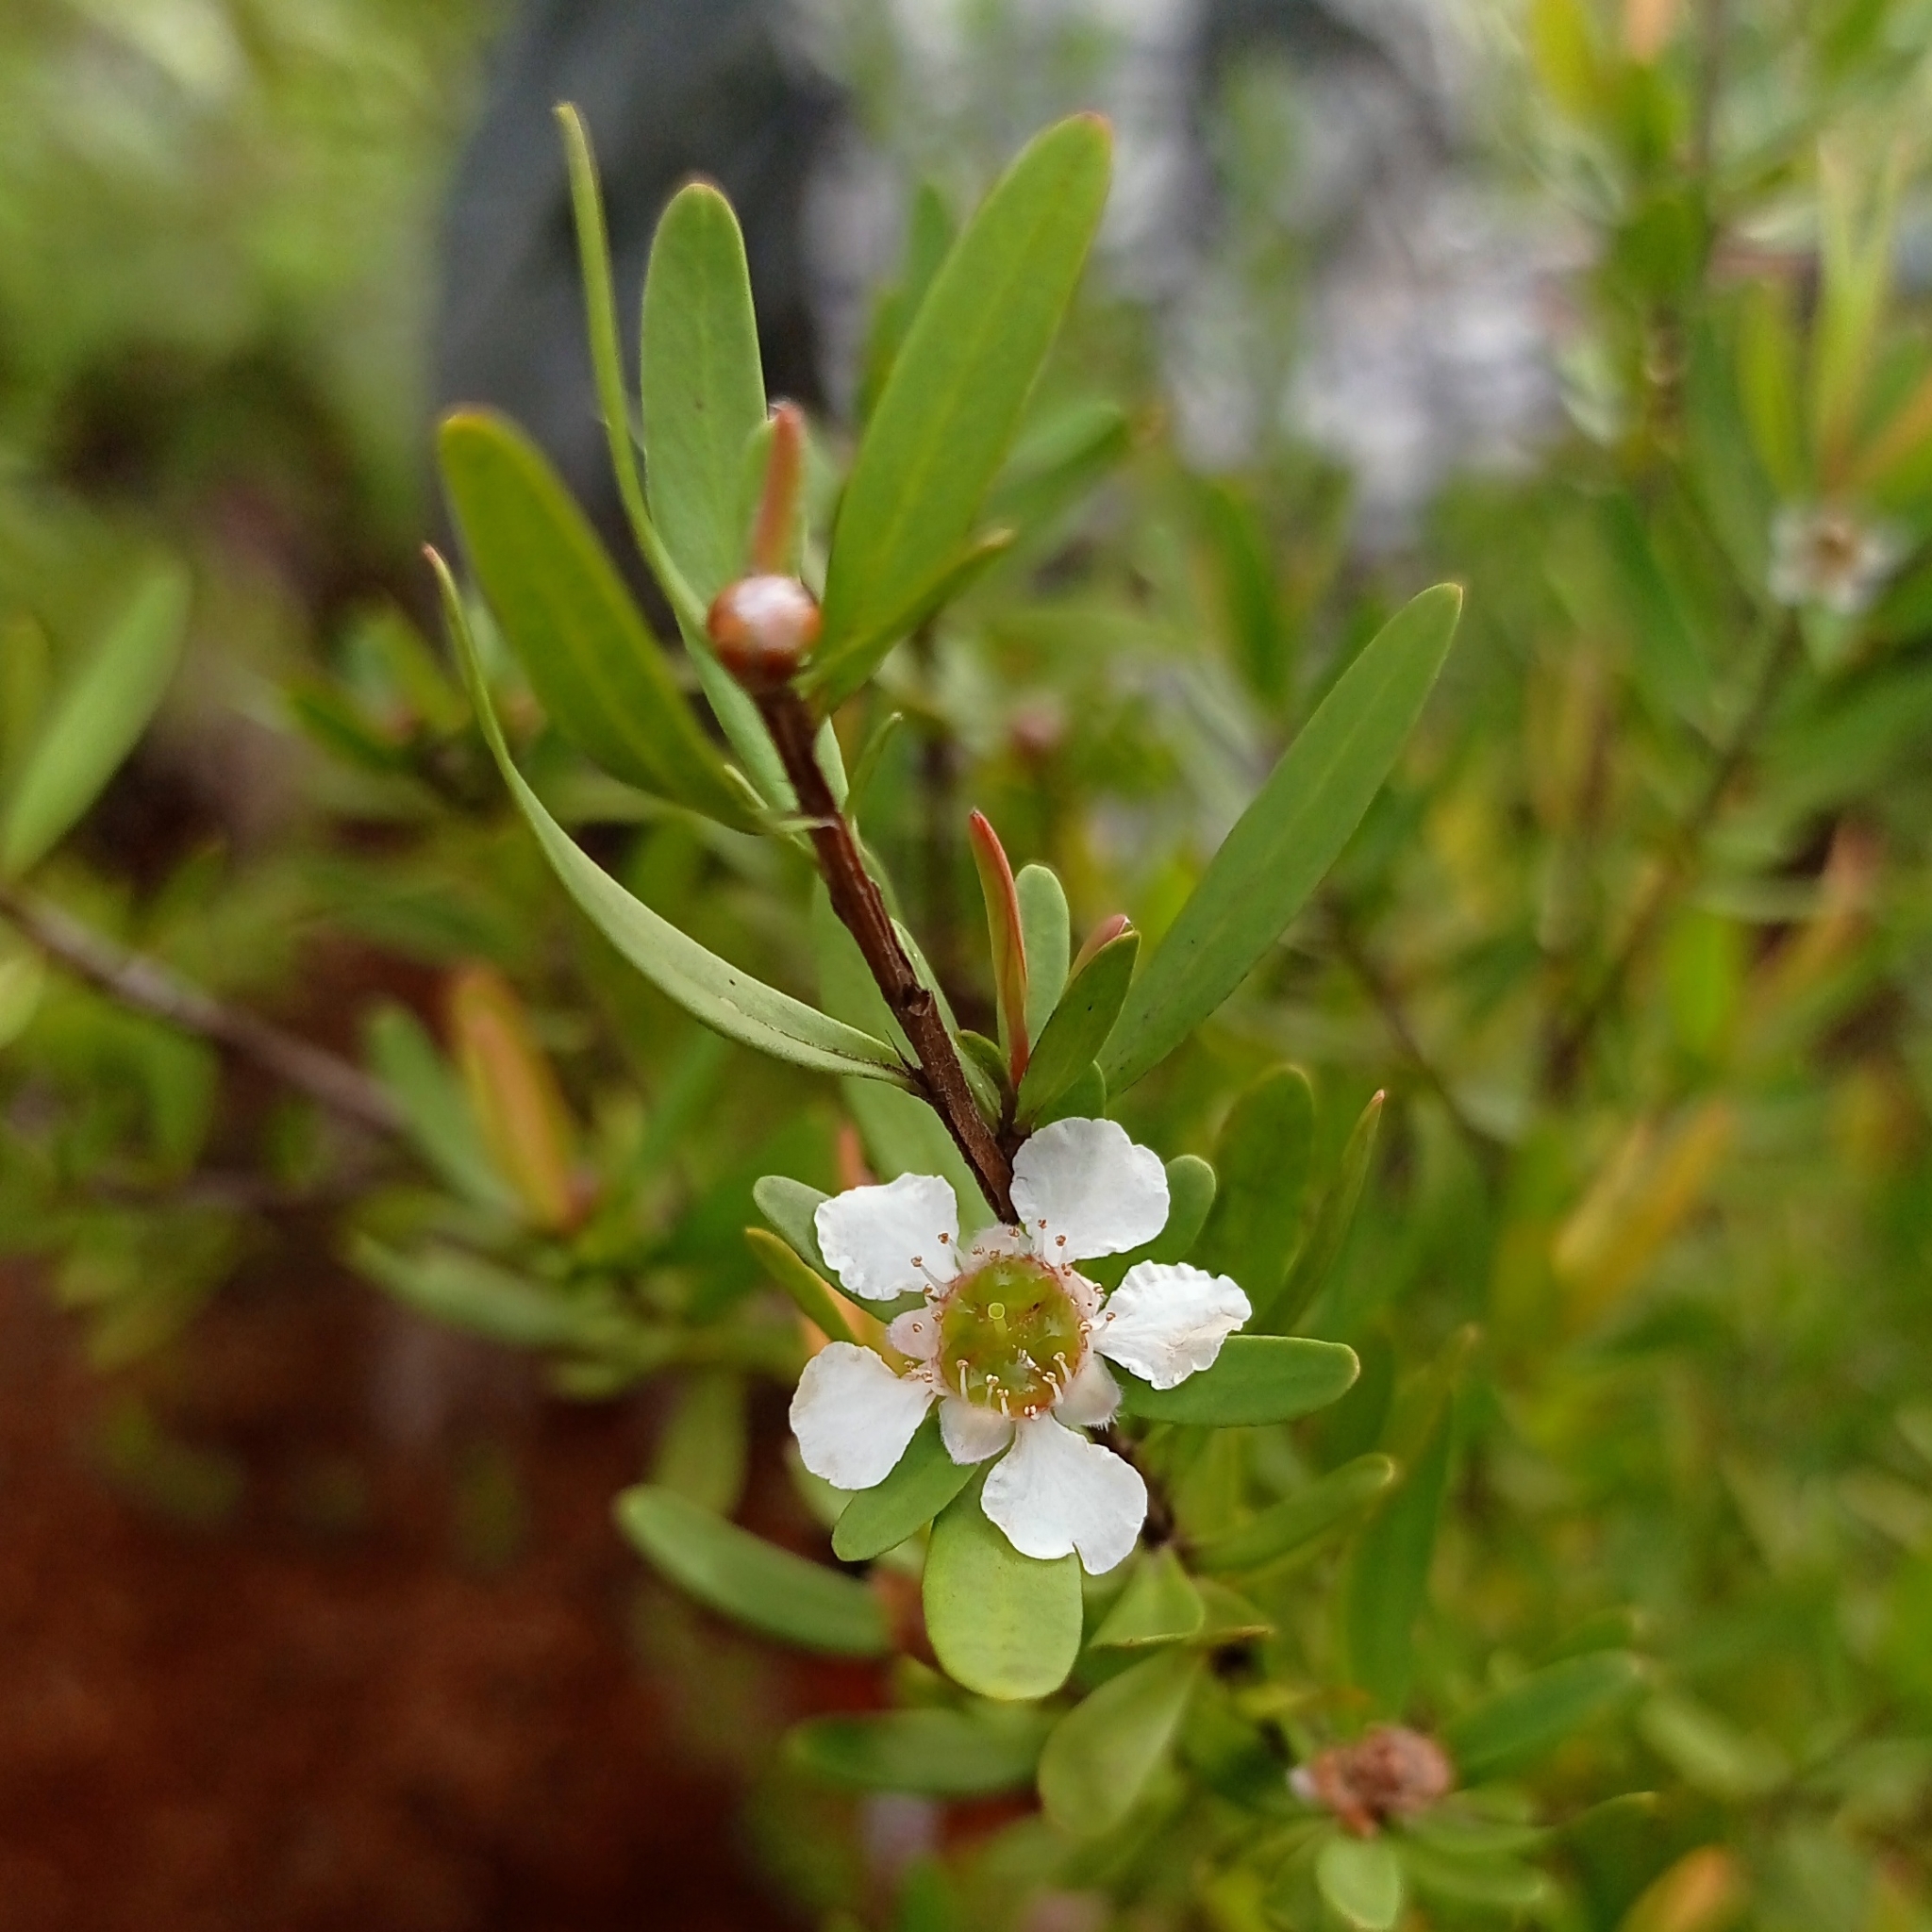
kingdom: Plantae
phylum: Tracheophyta
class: Magnoliopsida
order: Myrtales
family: Myrtaceae
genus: Leptospermum
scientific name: Leptospermum javanicum
